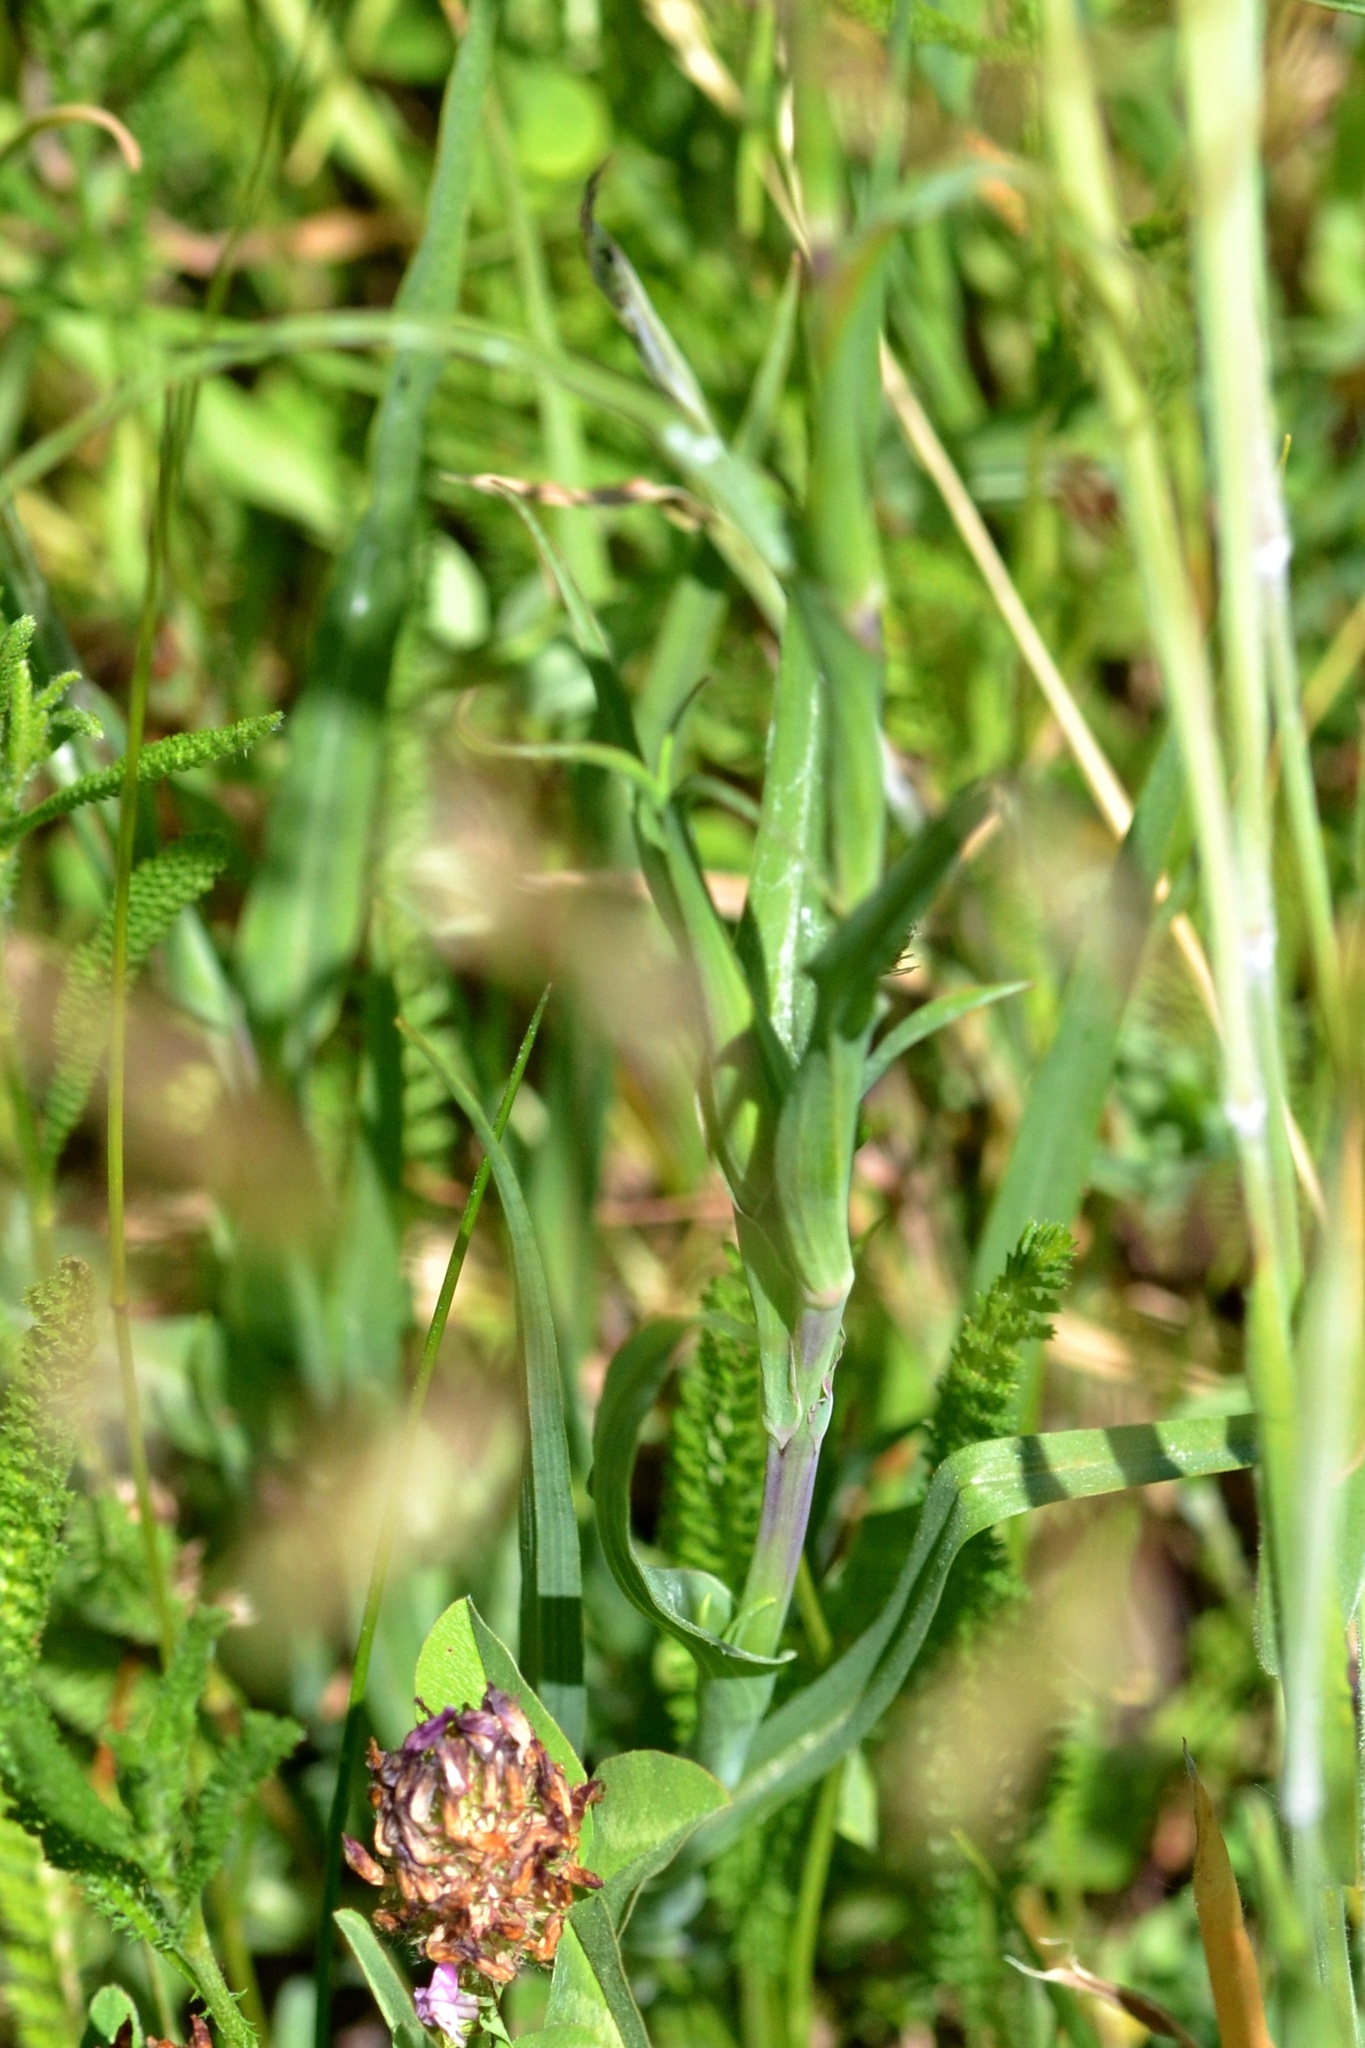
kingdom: Plantae
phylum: Tracheophyta
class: Magnoliopsida
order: Asterales
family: Asteraceae
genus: Tragopogon
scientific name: Tragopogon orientalis
